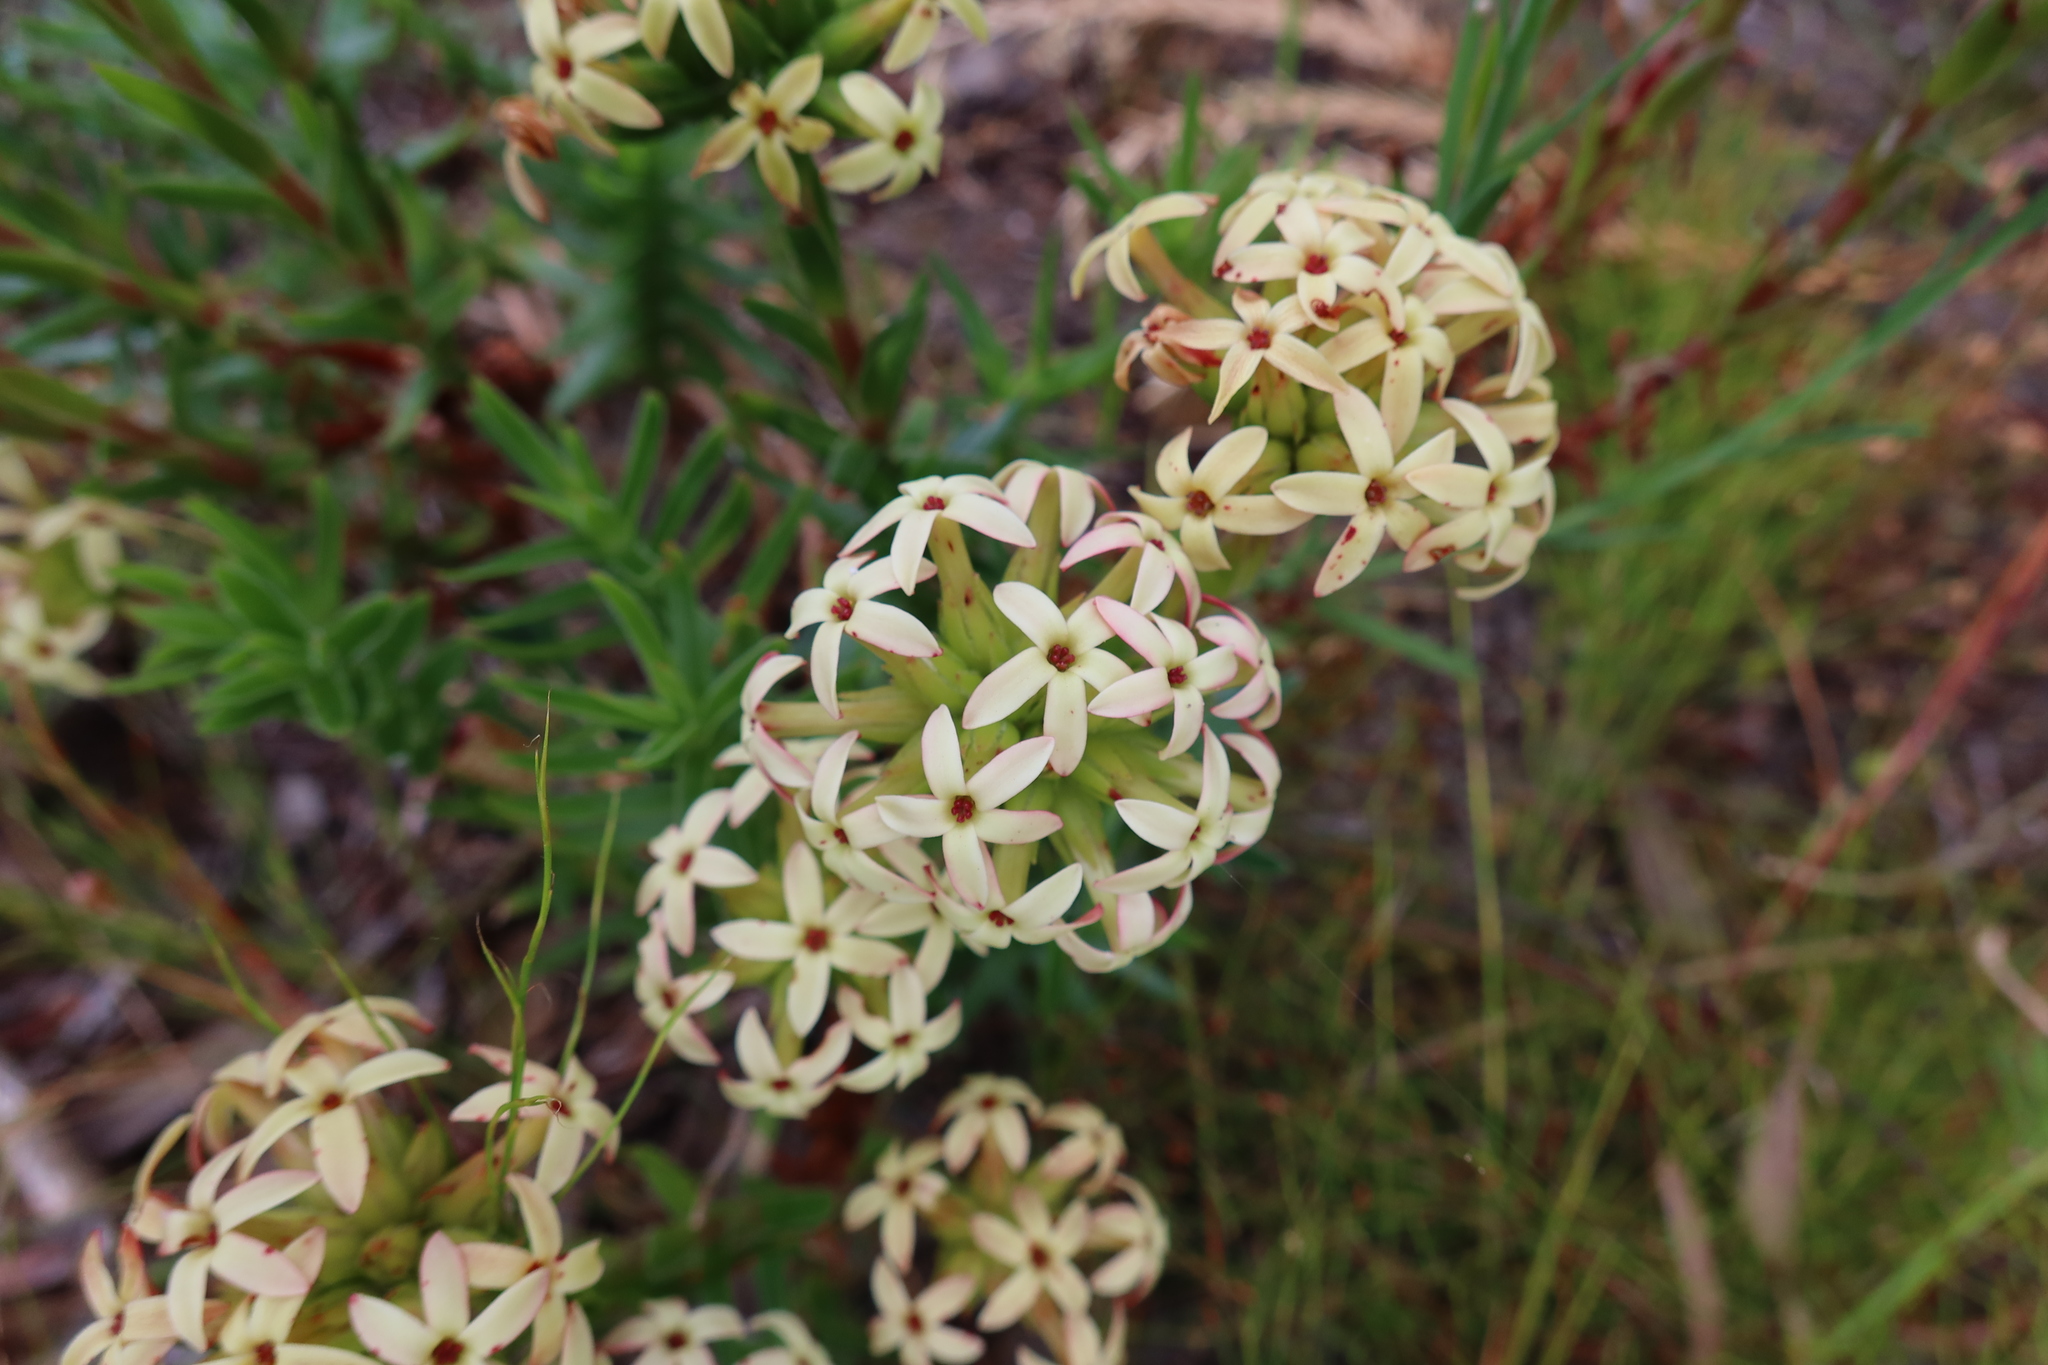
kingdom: Plantae
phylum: Tracheophyta
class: Magnoliopsida
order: Saxifragales
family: Crassulaceae
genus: Crassula
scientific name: Crassula fascicularis
